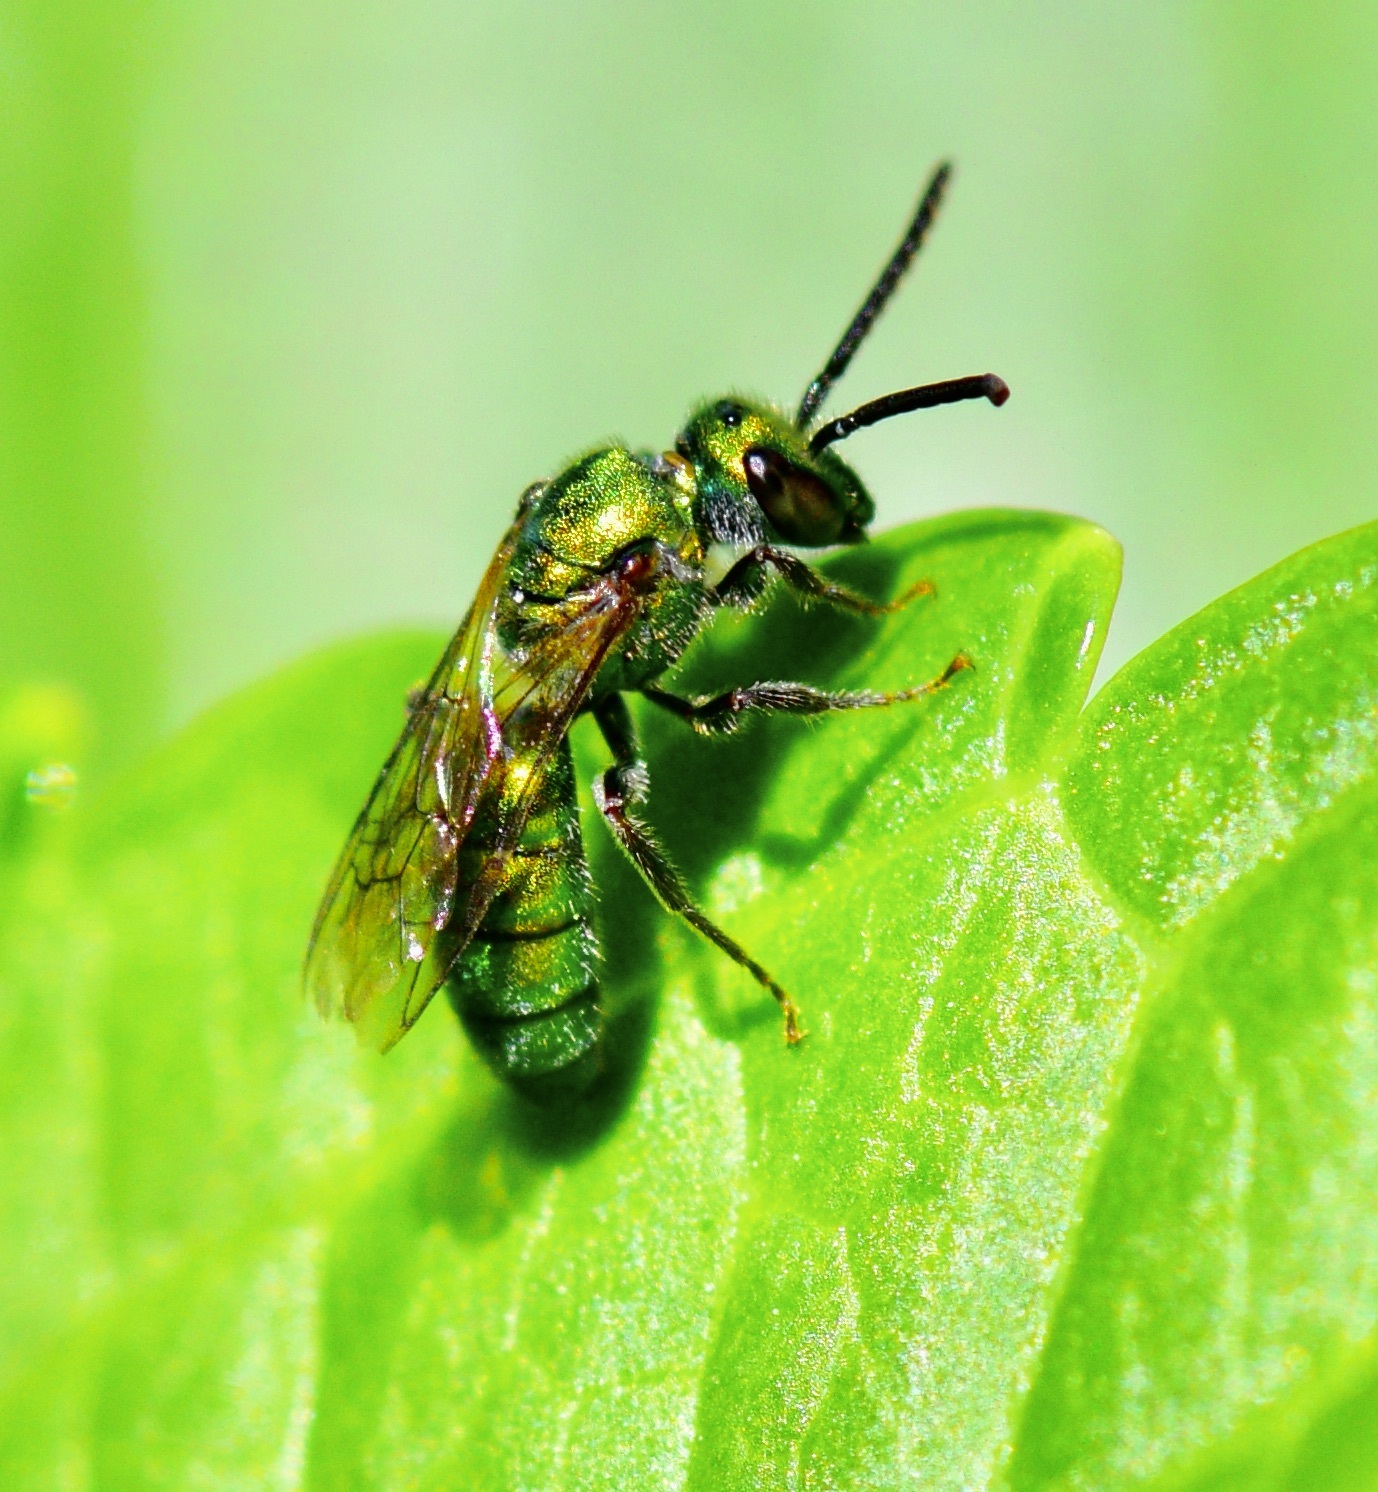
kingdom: Animalia
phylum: Arthropoda
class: Insecta
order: Hymenoptera
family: Halictidae
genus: Augochlora
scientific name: Augochlora pura
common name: Pure green sweat bee
